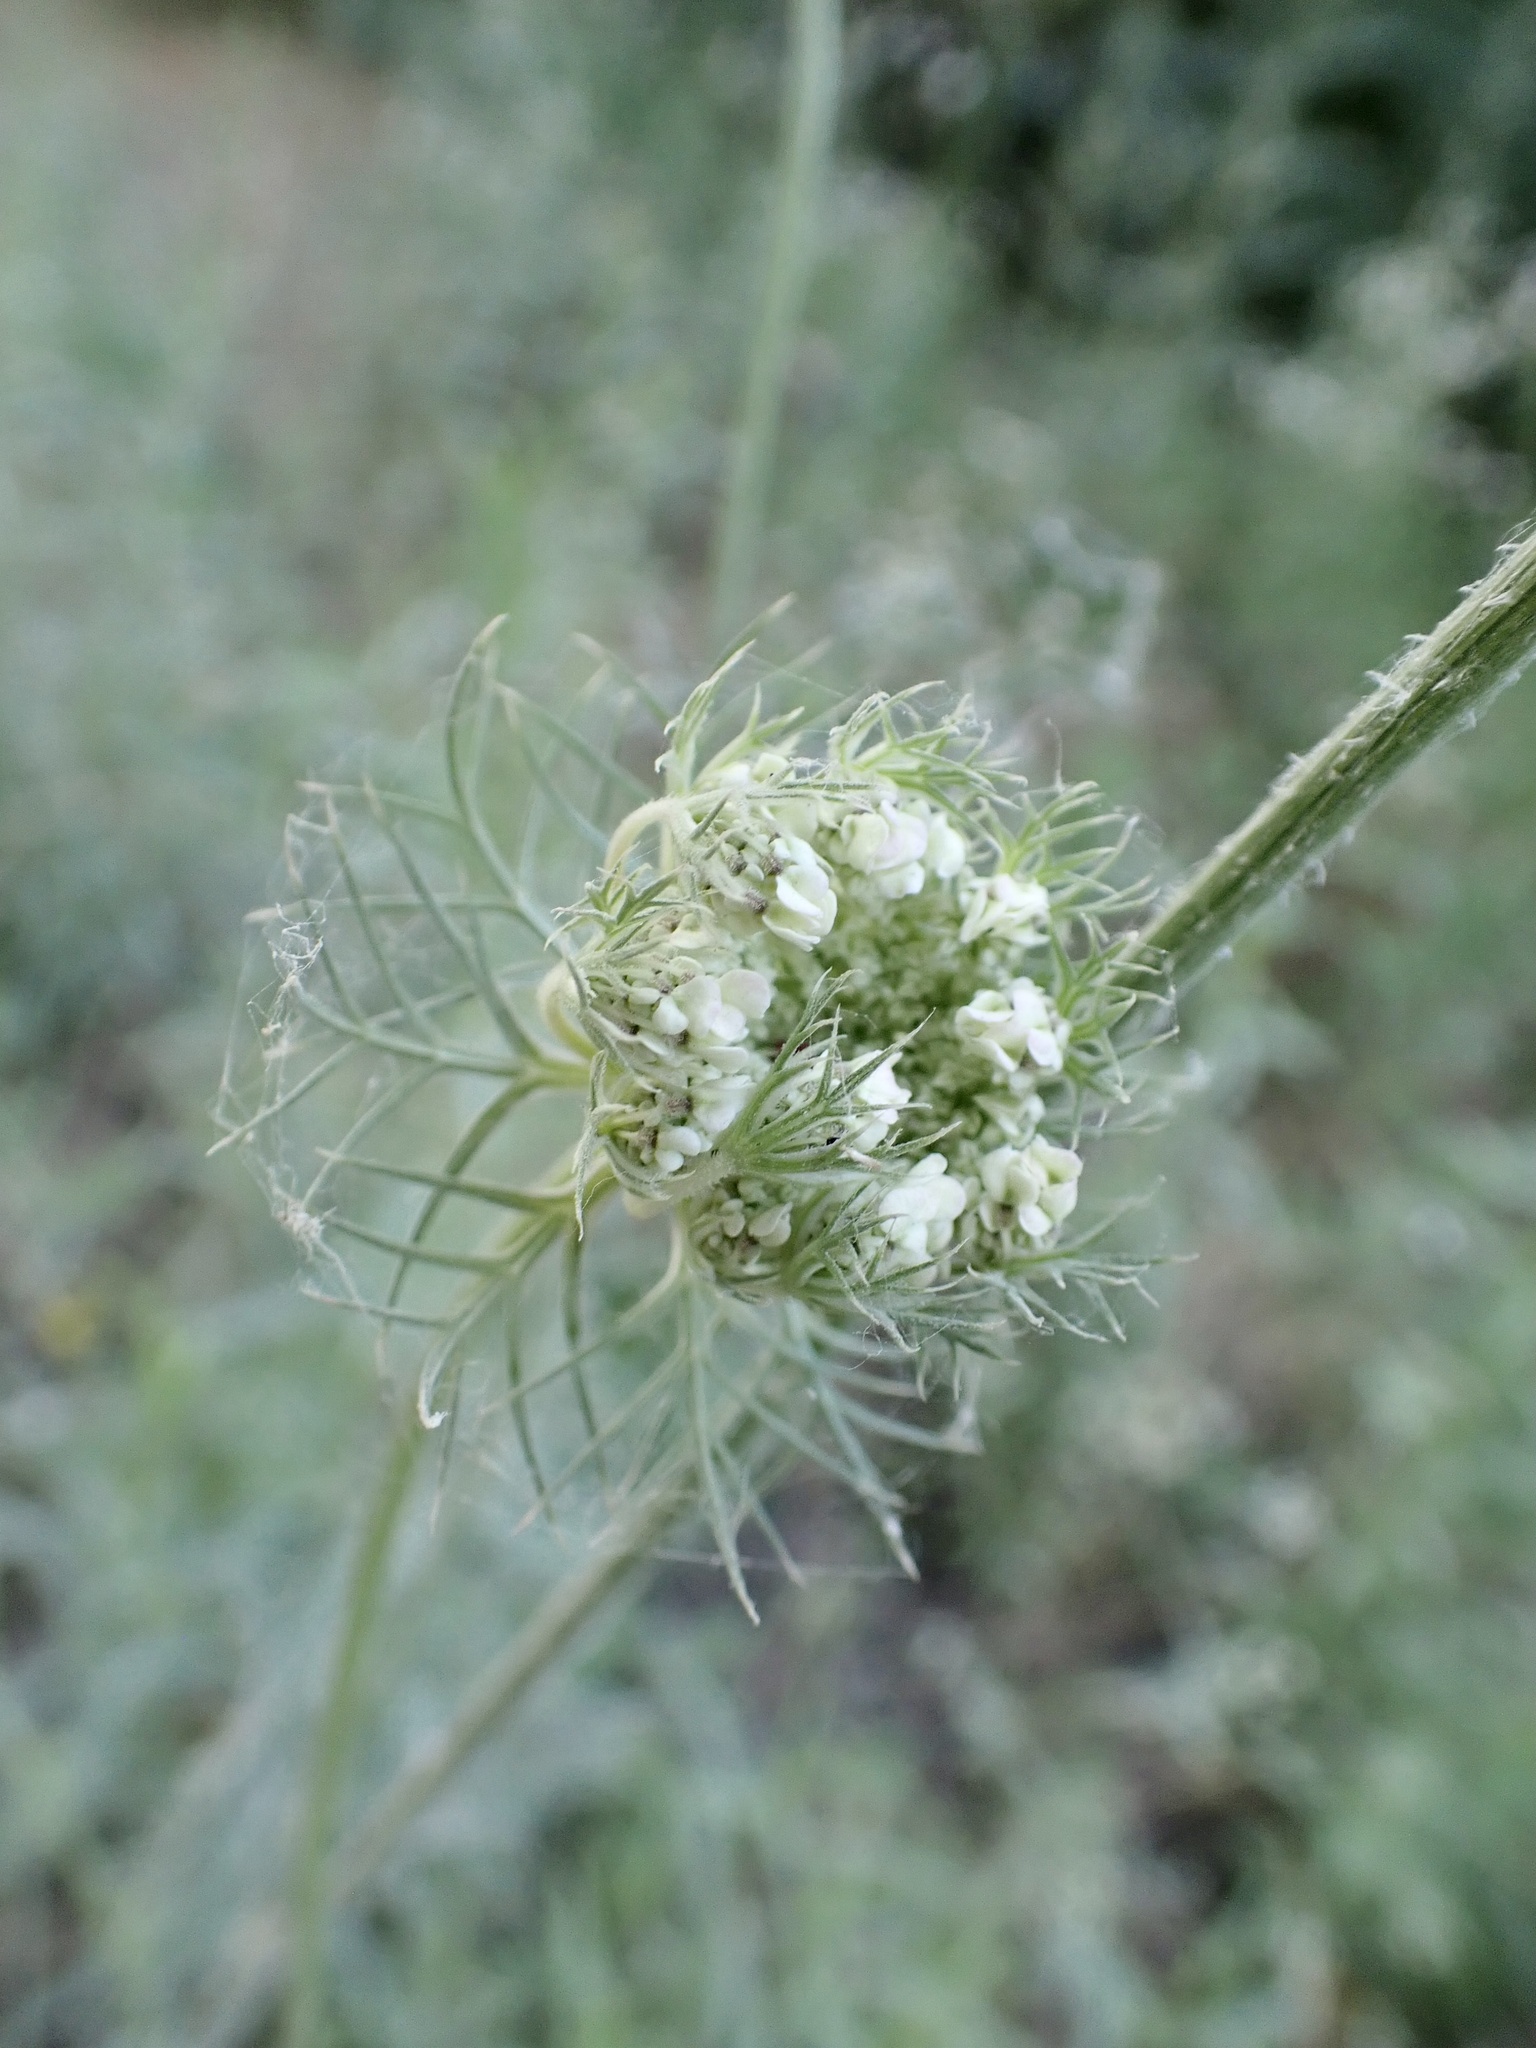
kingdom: Plantae
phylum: Tracheophyta
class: Magnoliopsida
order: Apiales
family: Apiaceae
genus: Daucus
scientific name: Daucus carota
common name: Wild carrot
